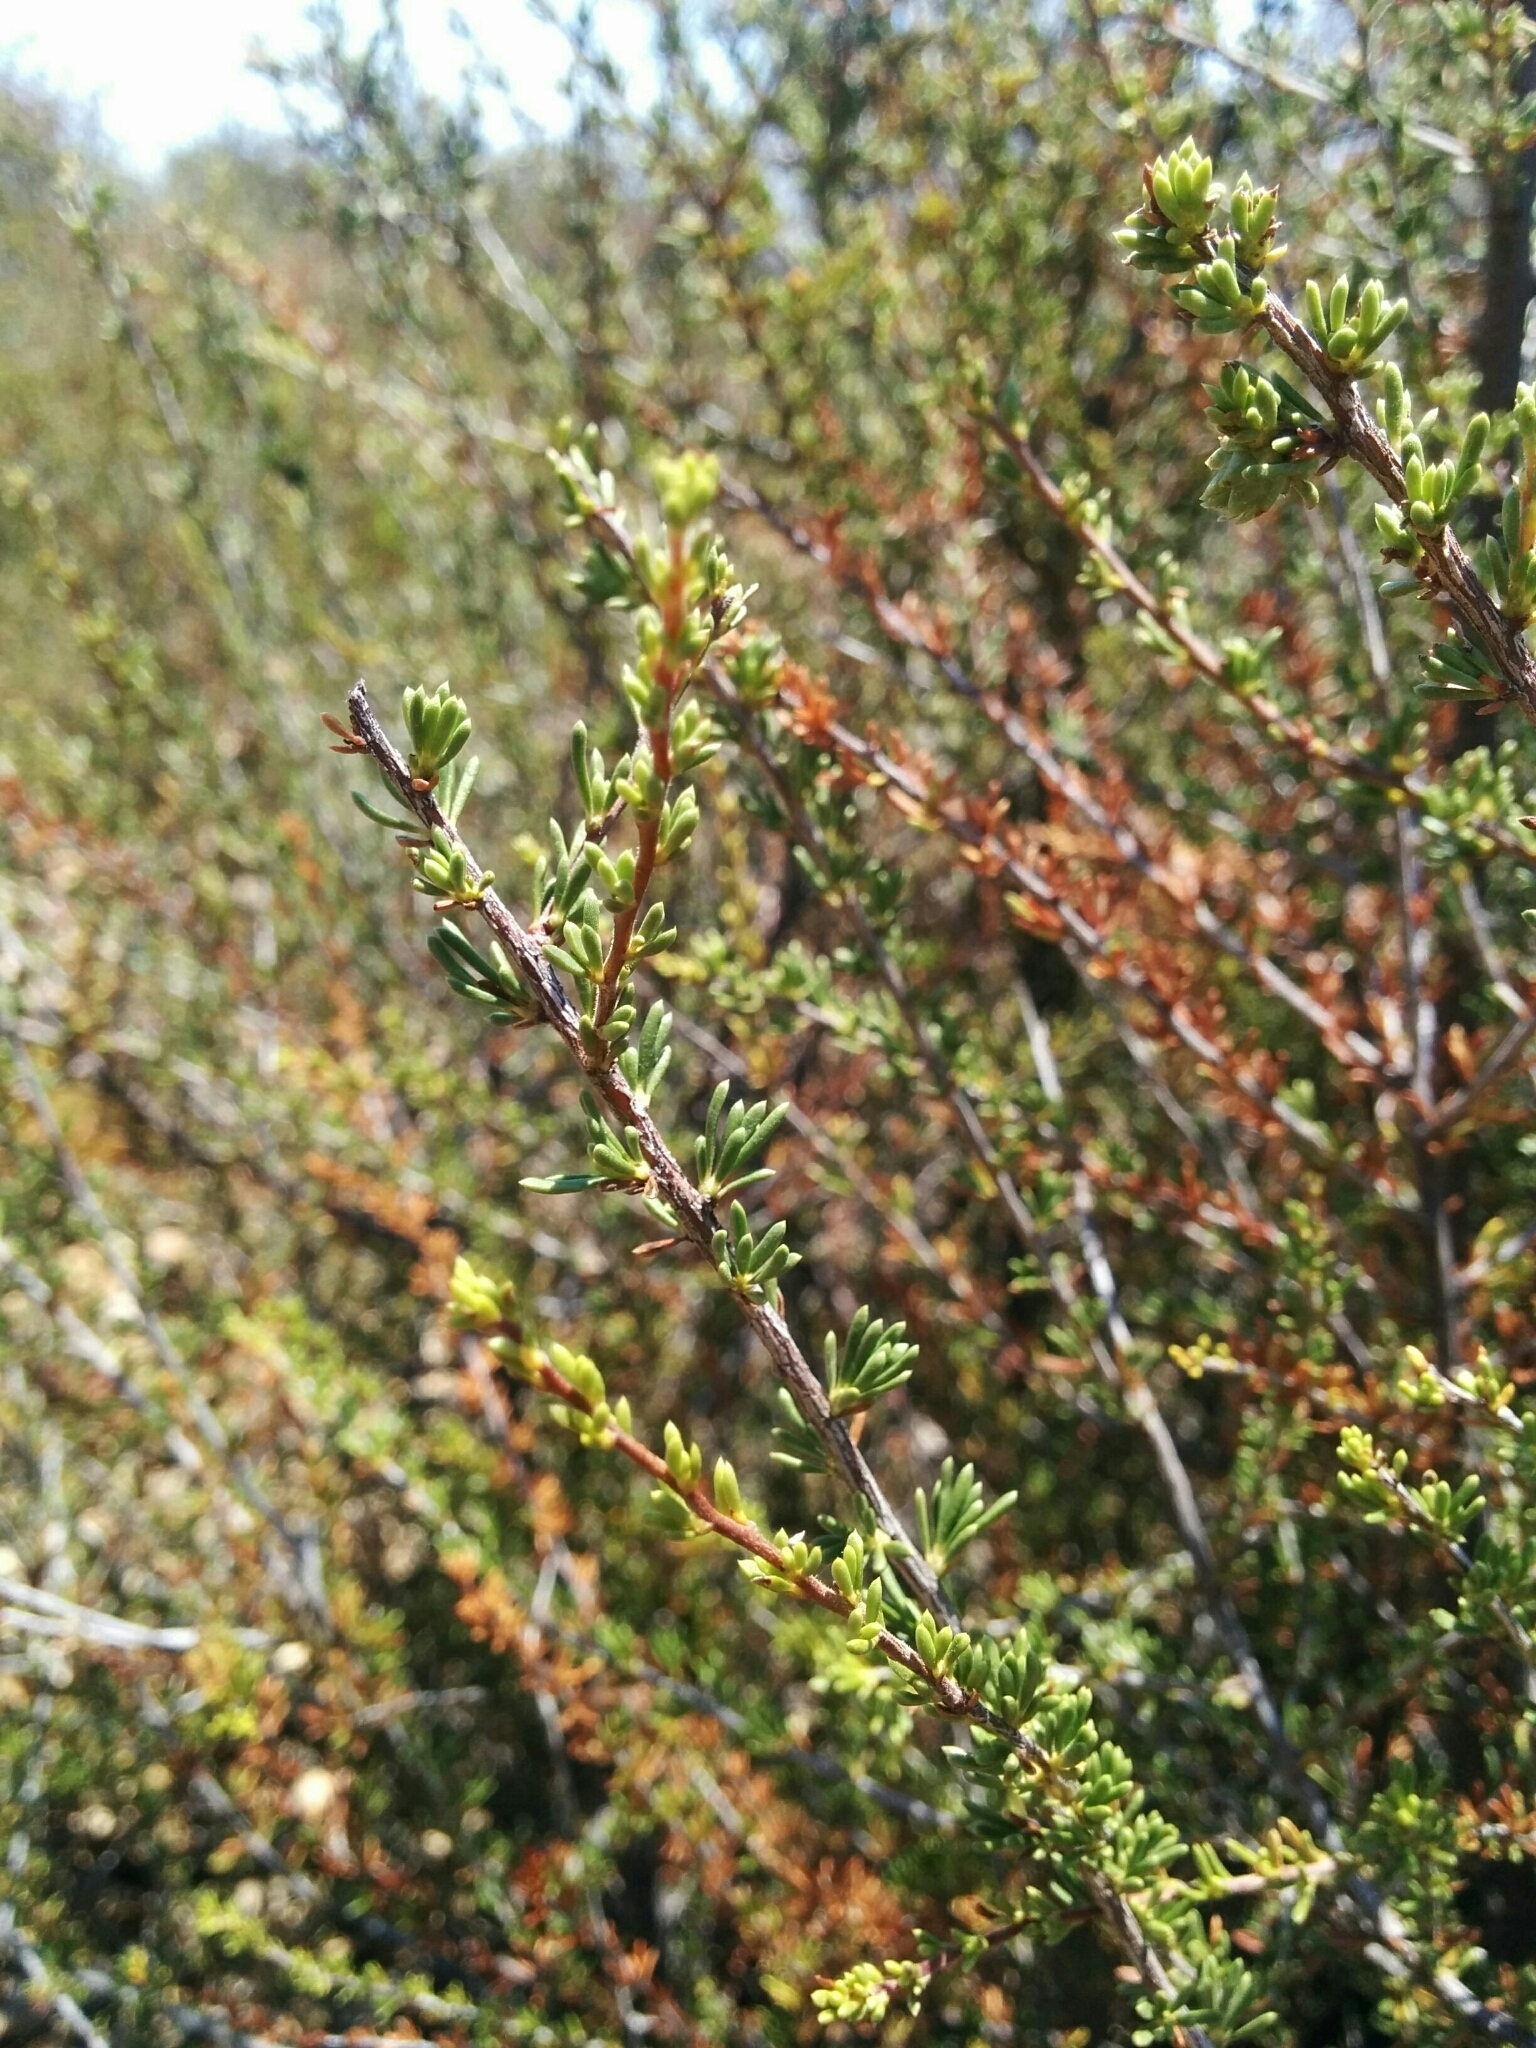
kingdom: Plantae
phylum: Tracheophyta
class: Magnoliopsida
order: Rosales
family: Rosaceae
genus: Adenostoma
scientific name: Adenostoma fasciculatum
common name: Chamise
